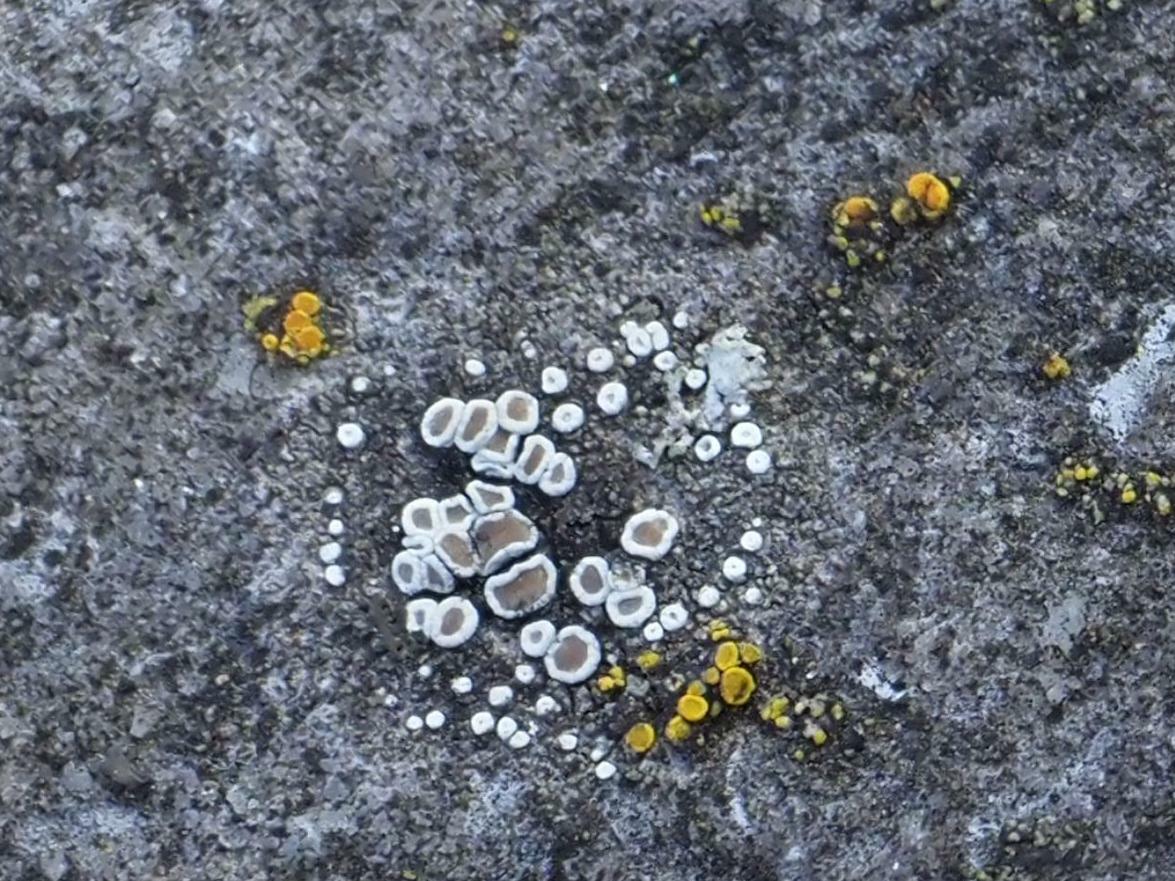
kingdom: Fungi
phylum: Ascomycota
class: Lecanoromycetes
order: Lecanorales
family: Lecanoraceae
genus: Polyozosia
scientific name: Polyozosia dispersa
